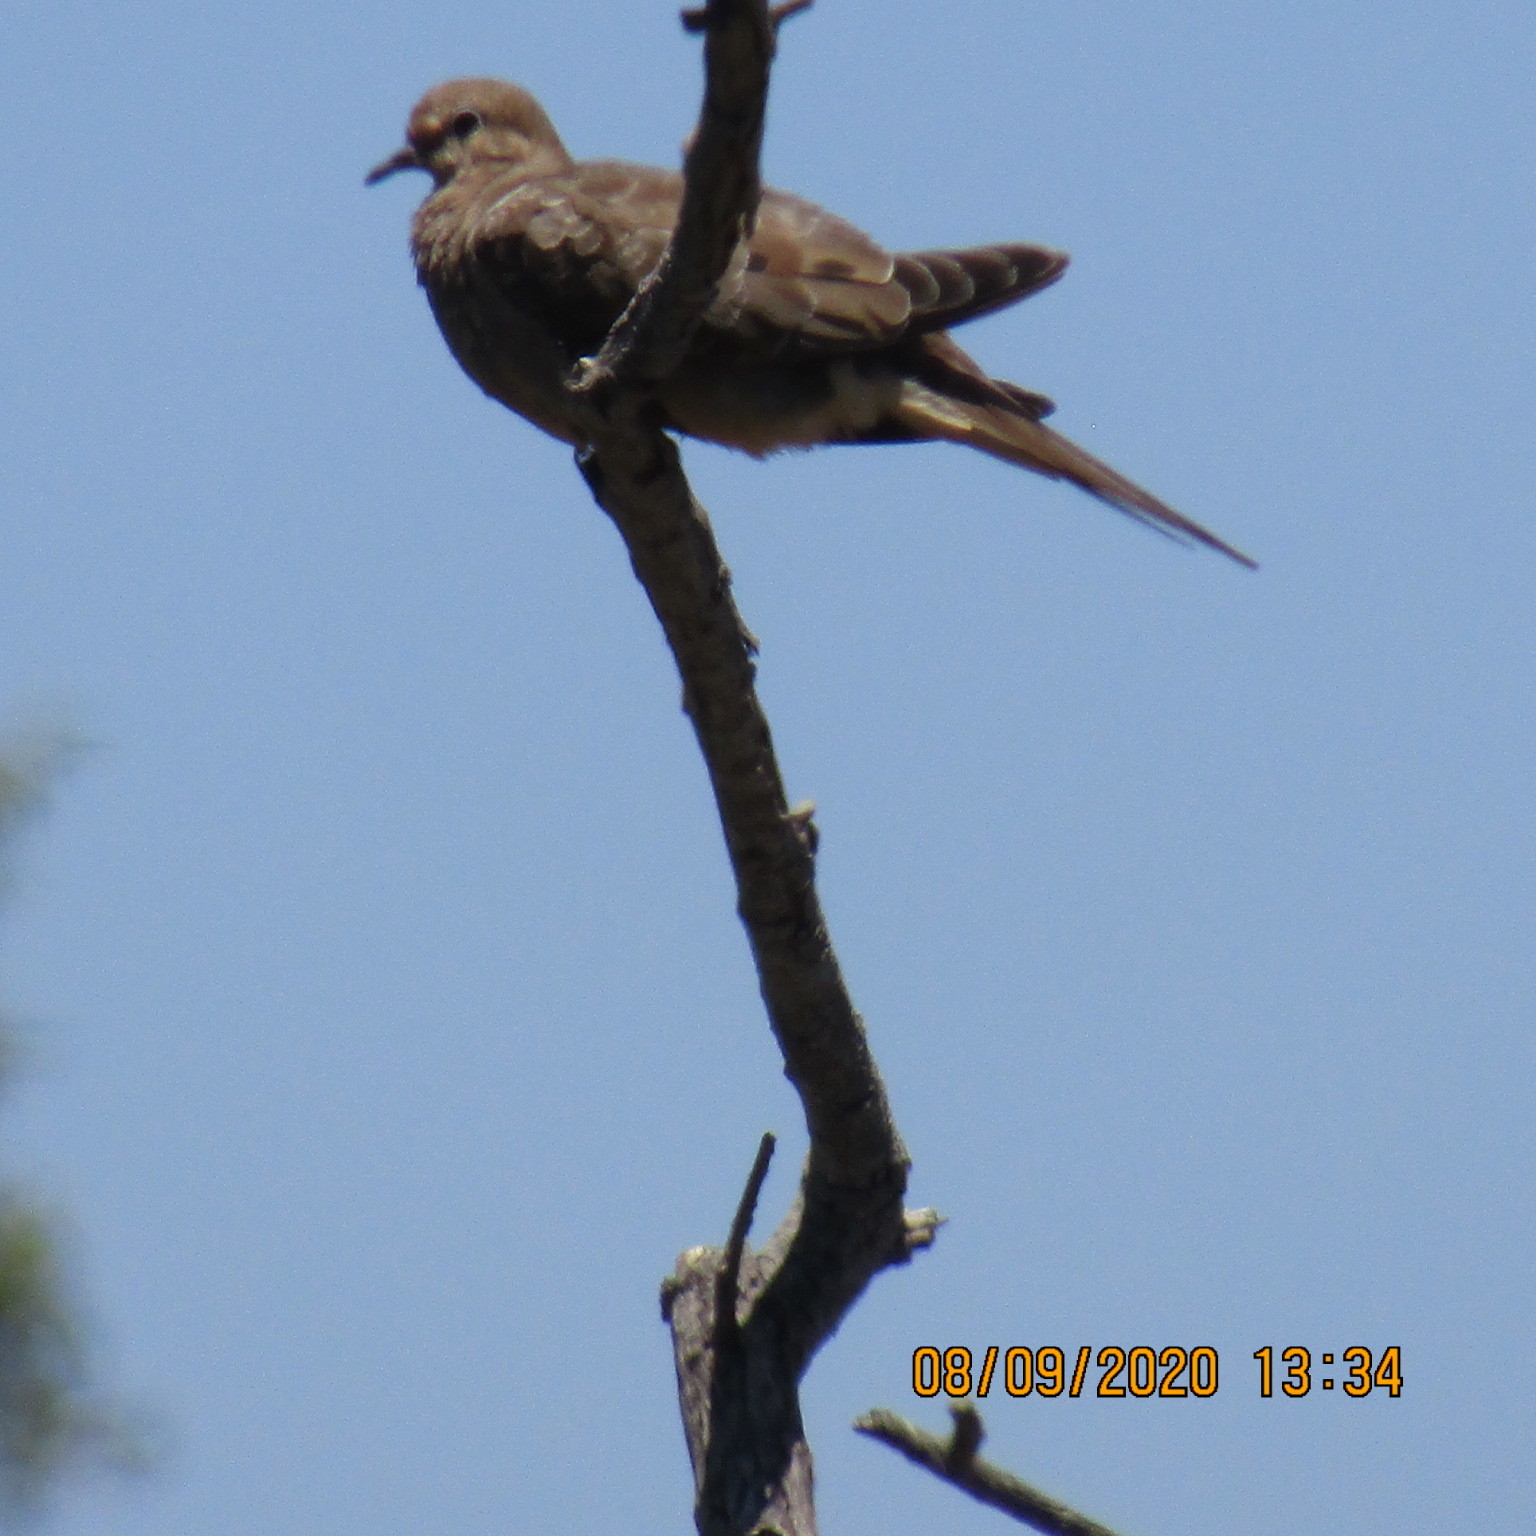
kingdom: Animalia
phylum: Chordata
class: Aves
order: Columbiformes
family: Columbidae
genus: Zenaida
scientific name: Zenaida macroura
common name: Mourning dove
